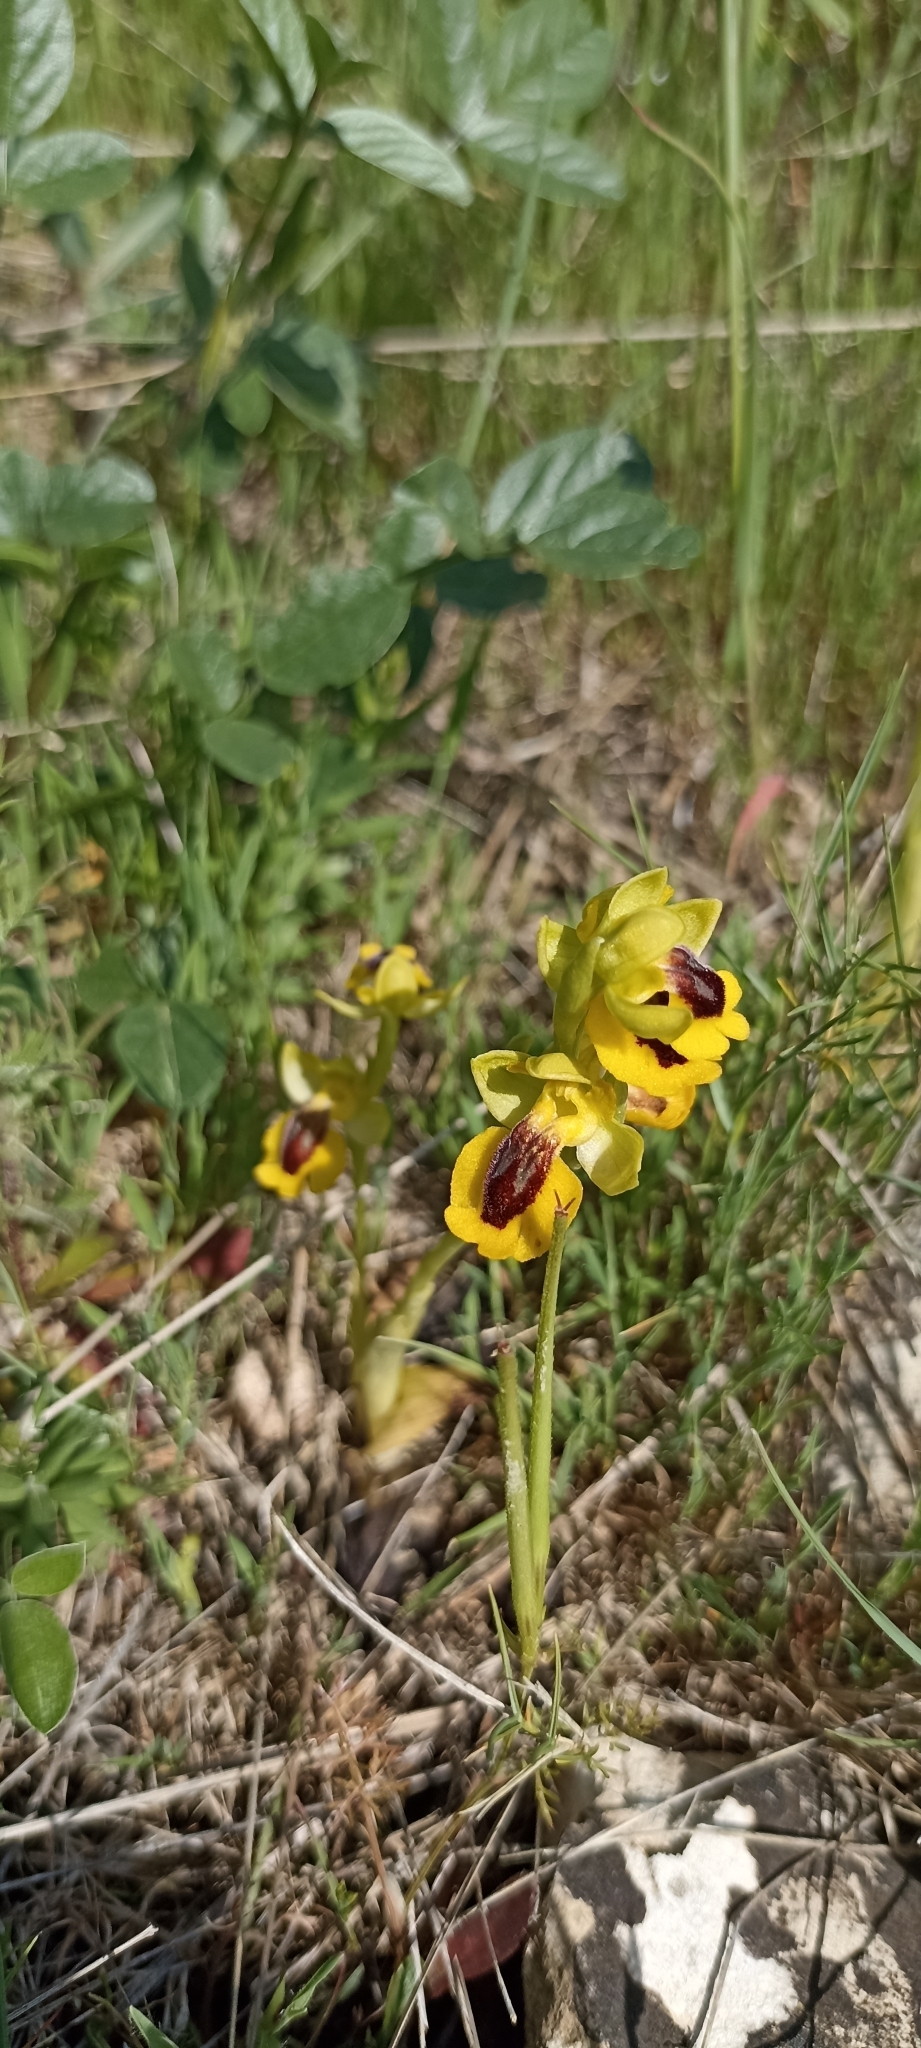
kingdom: Plantae
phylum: Tracheophyta
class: Liliopsida
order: Asparagales
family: Orchidaceae
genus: Ophrys
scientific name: Ophrys lutea
